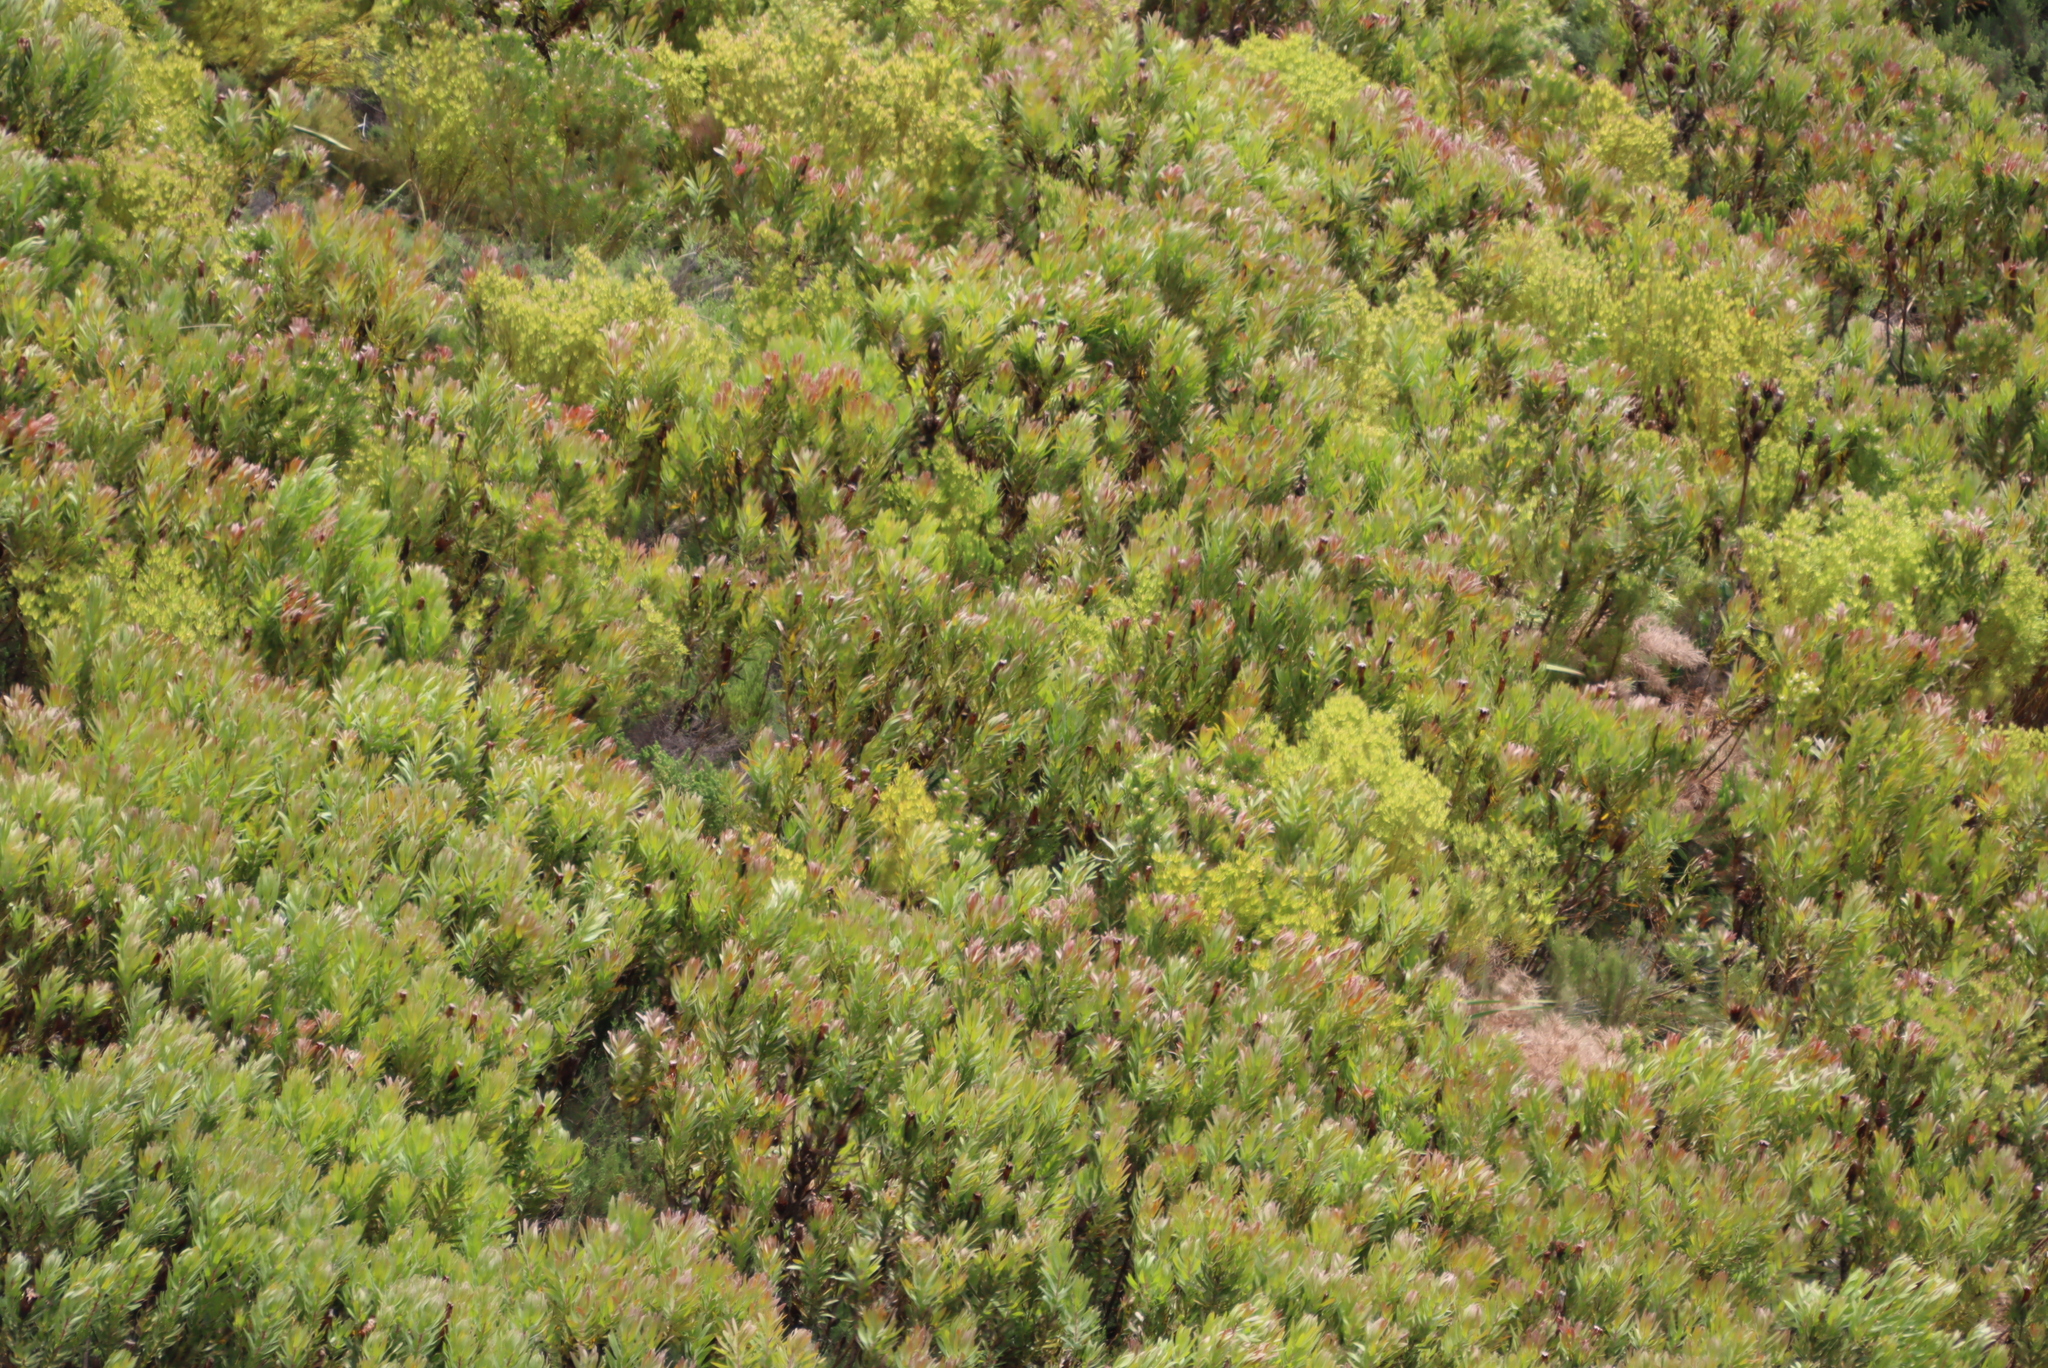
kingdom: Plantae
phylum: Tracheophyta
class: Magnoliopsida
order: Proteales
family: Proteaceae
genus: Leucadendron
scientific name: Leucadendron xanthoconus
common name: Sickle-leaf conebush
